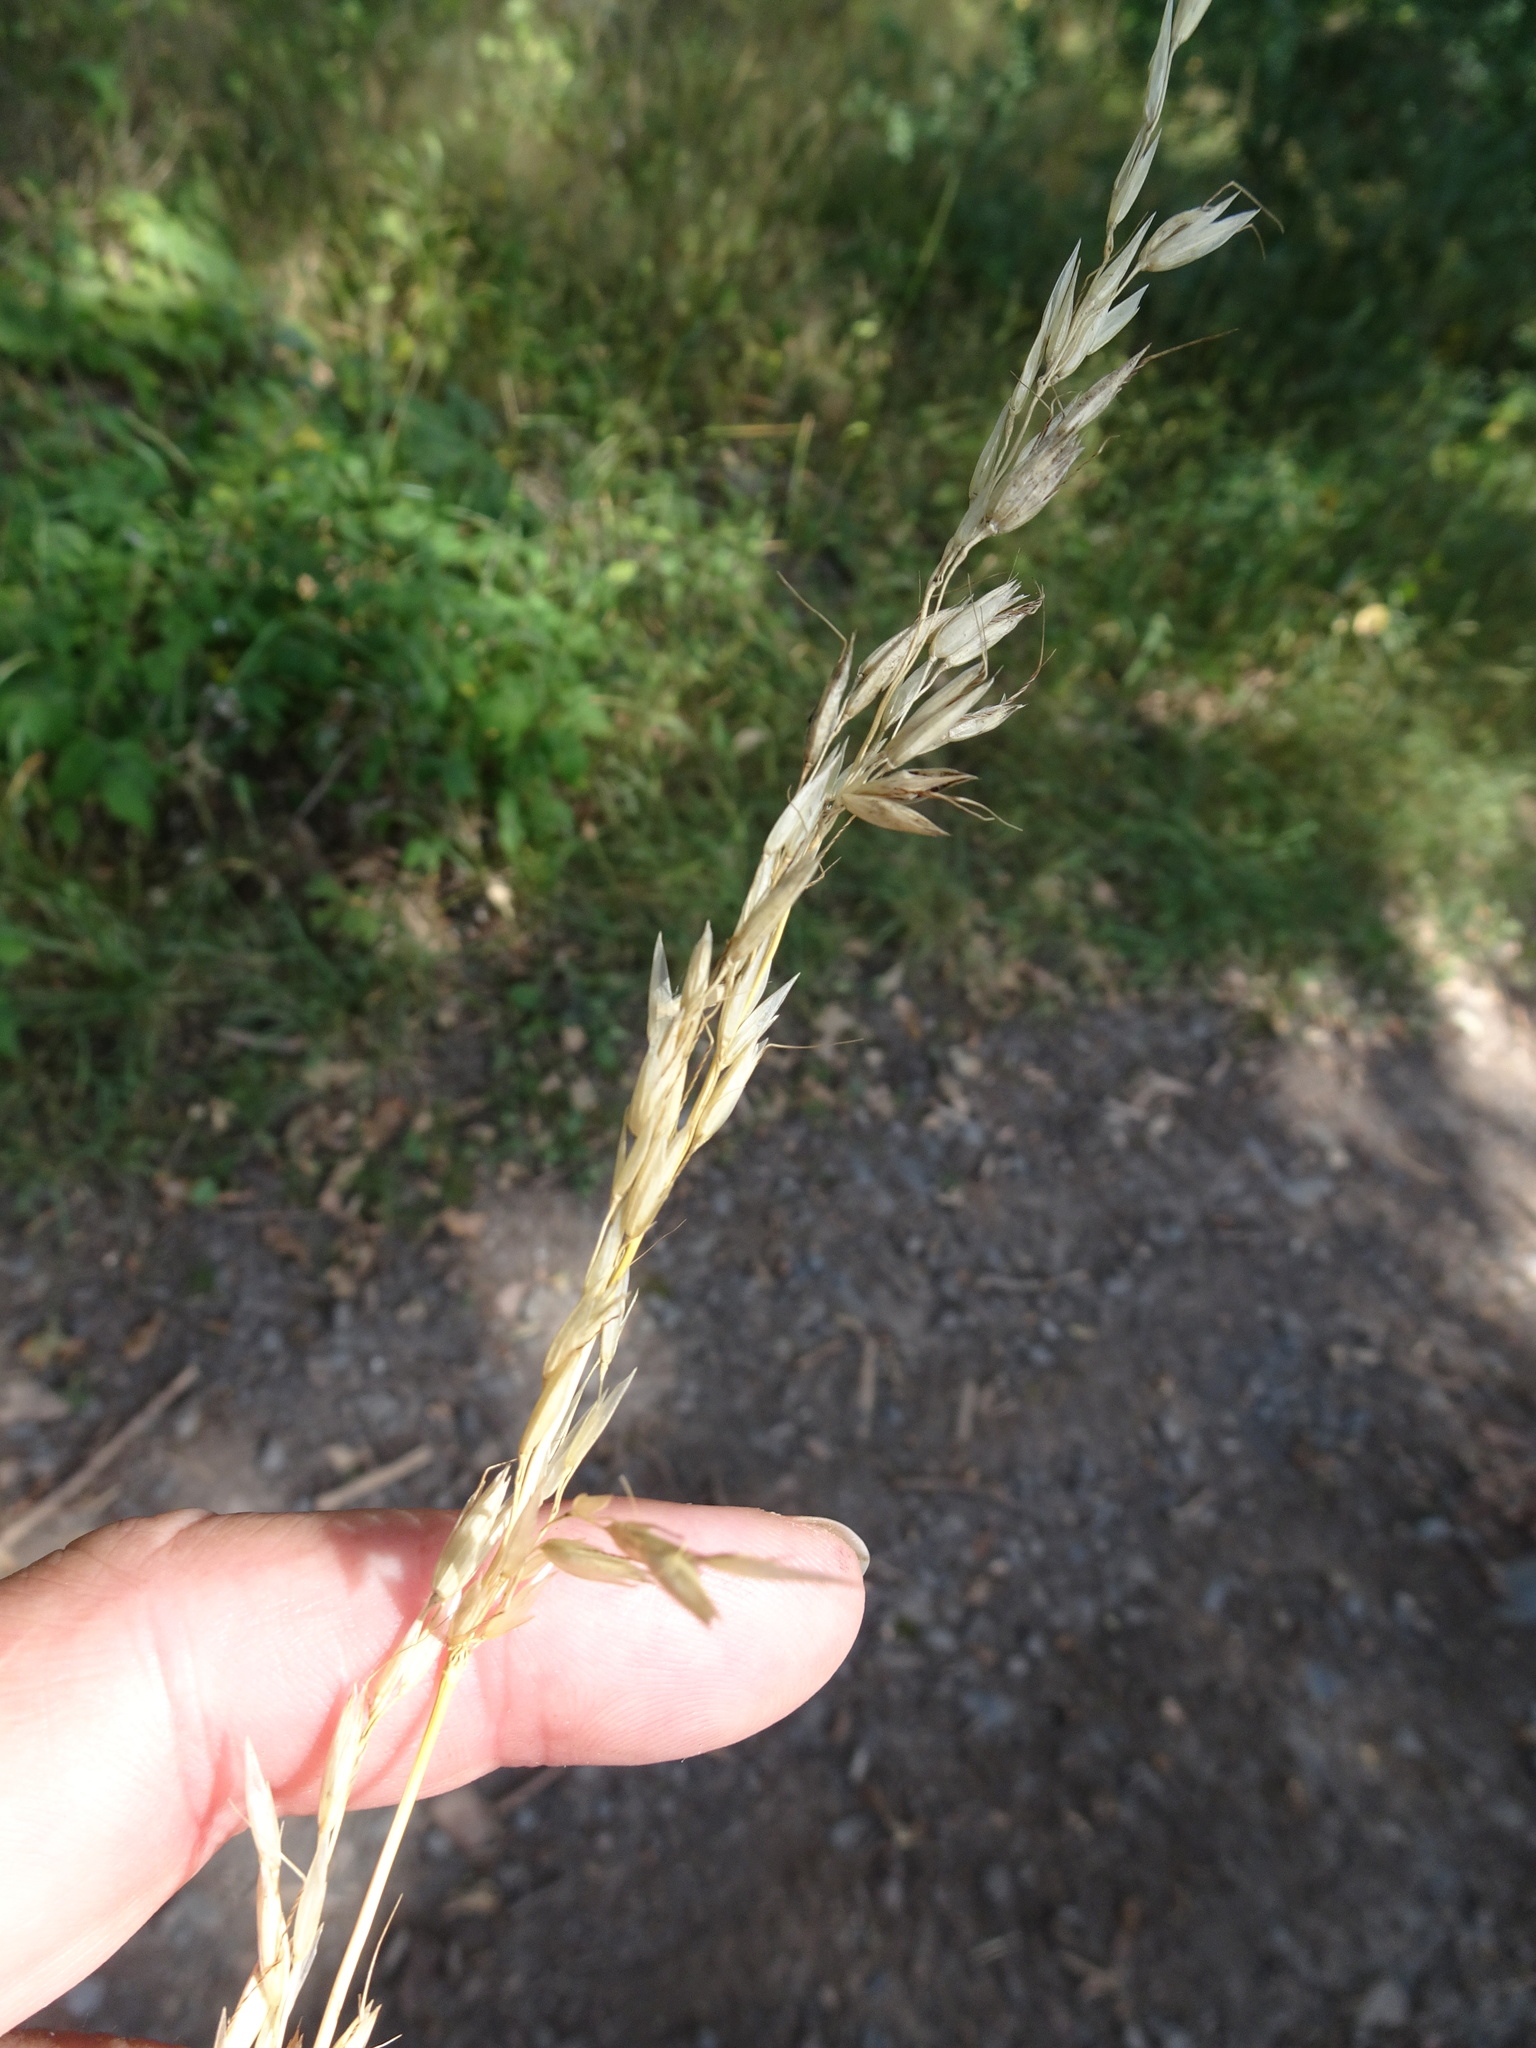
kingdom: Plantae
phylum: Tracheophyta
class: Liliopsida
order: Poales
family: Poaceae
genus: Arrhenatherum
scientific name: Arrhenatherum elatius
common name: Tall oatgrass
